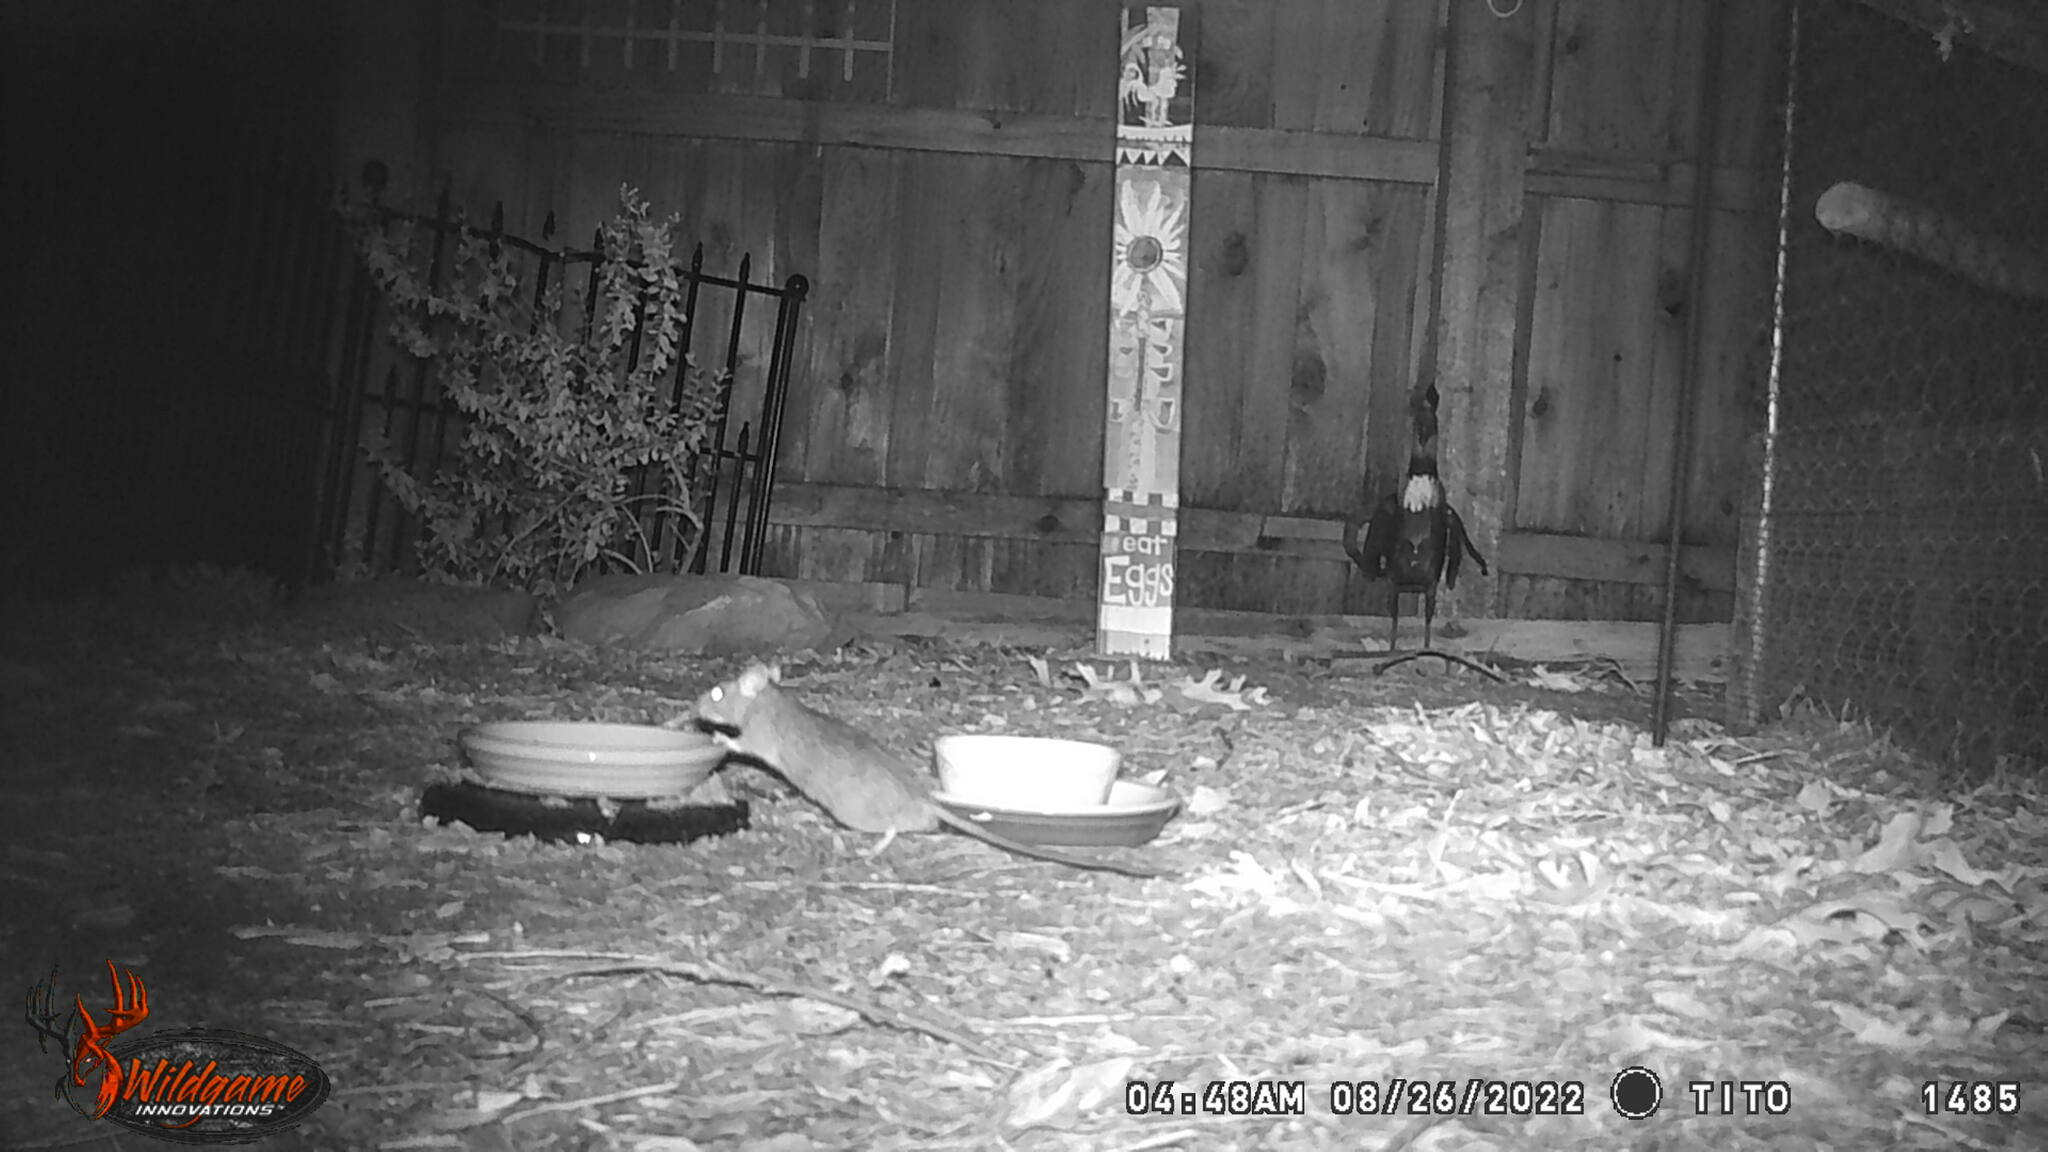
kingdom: Animalia
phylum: Chordata
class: Mammalia
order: Rodentia
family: Muridae
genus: Rattus
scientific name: Rattus norvegicus
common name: Brown rat
